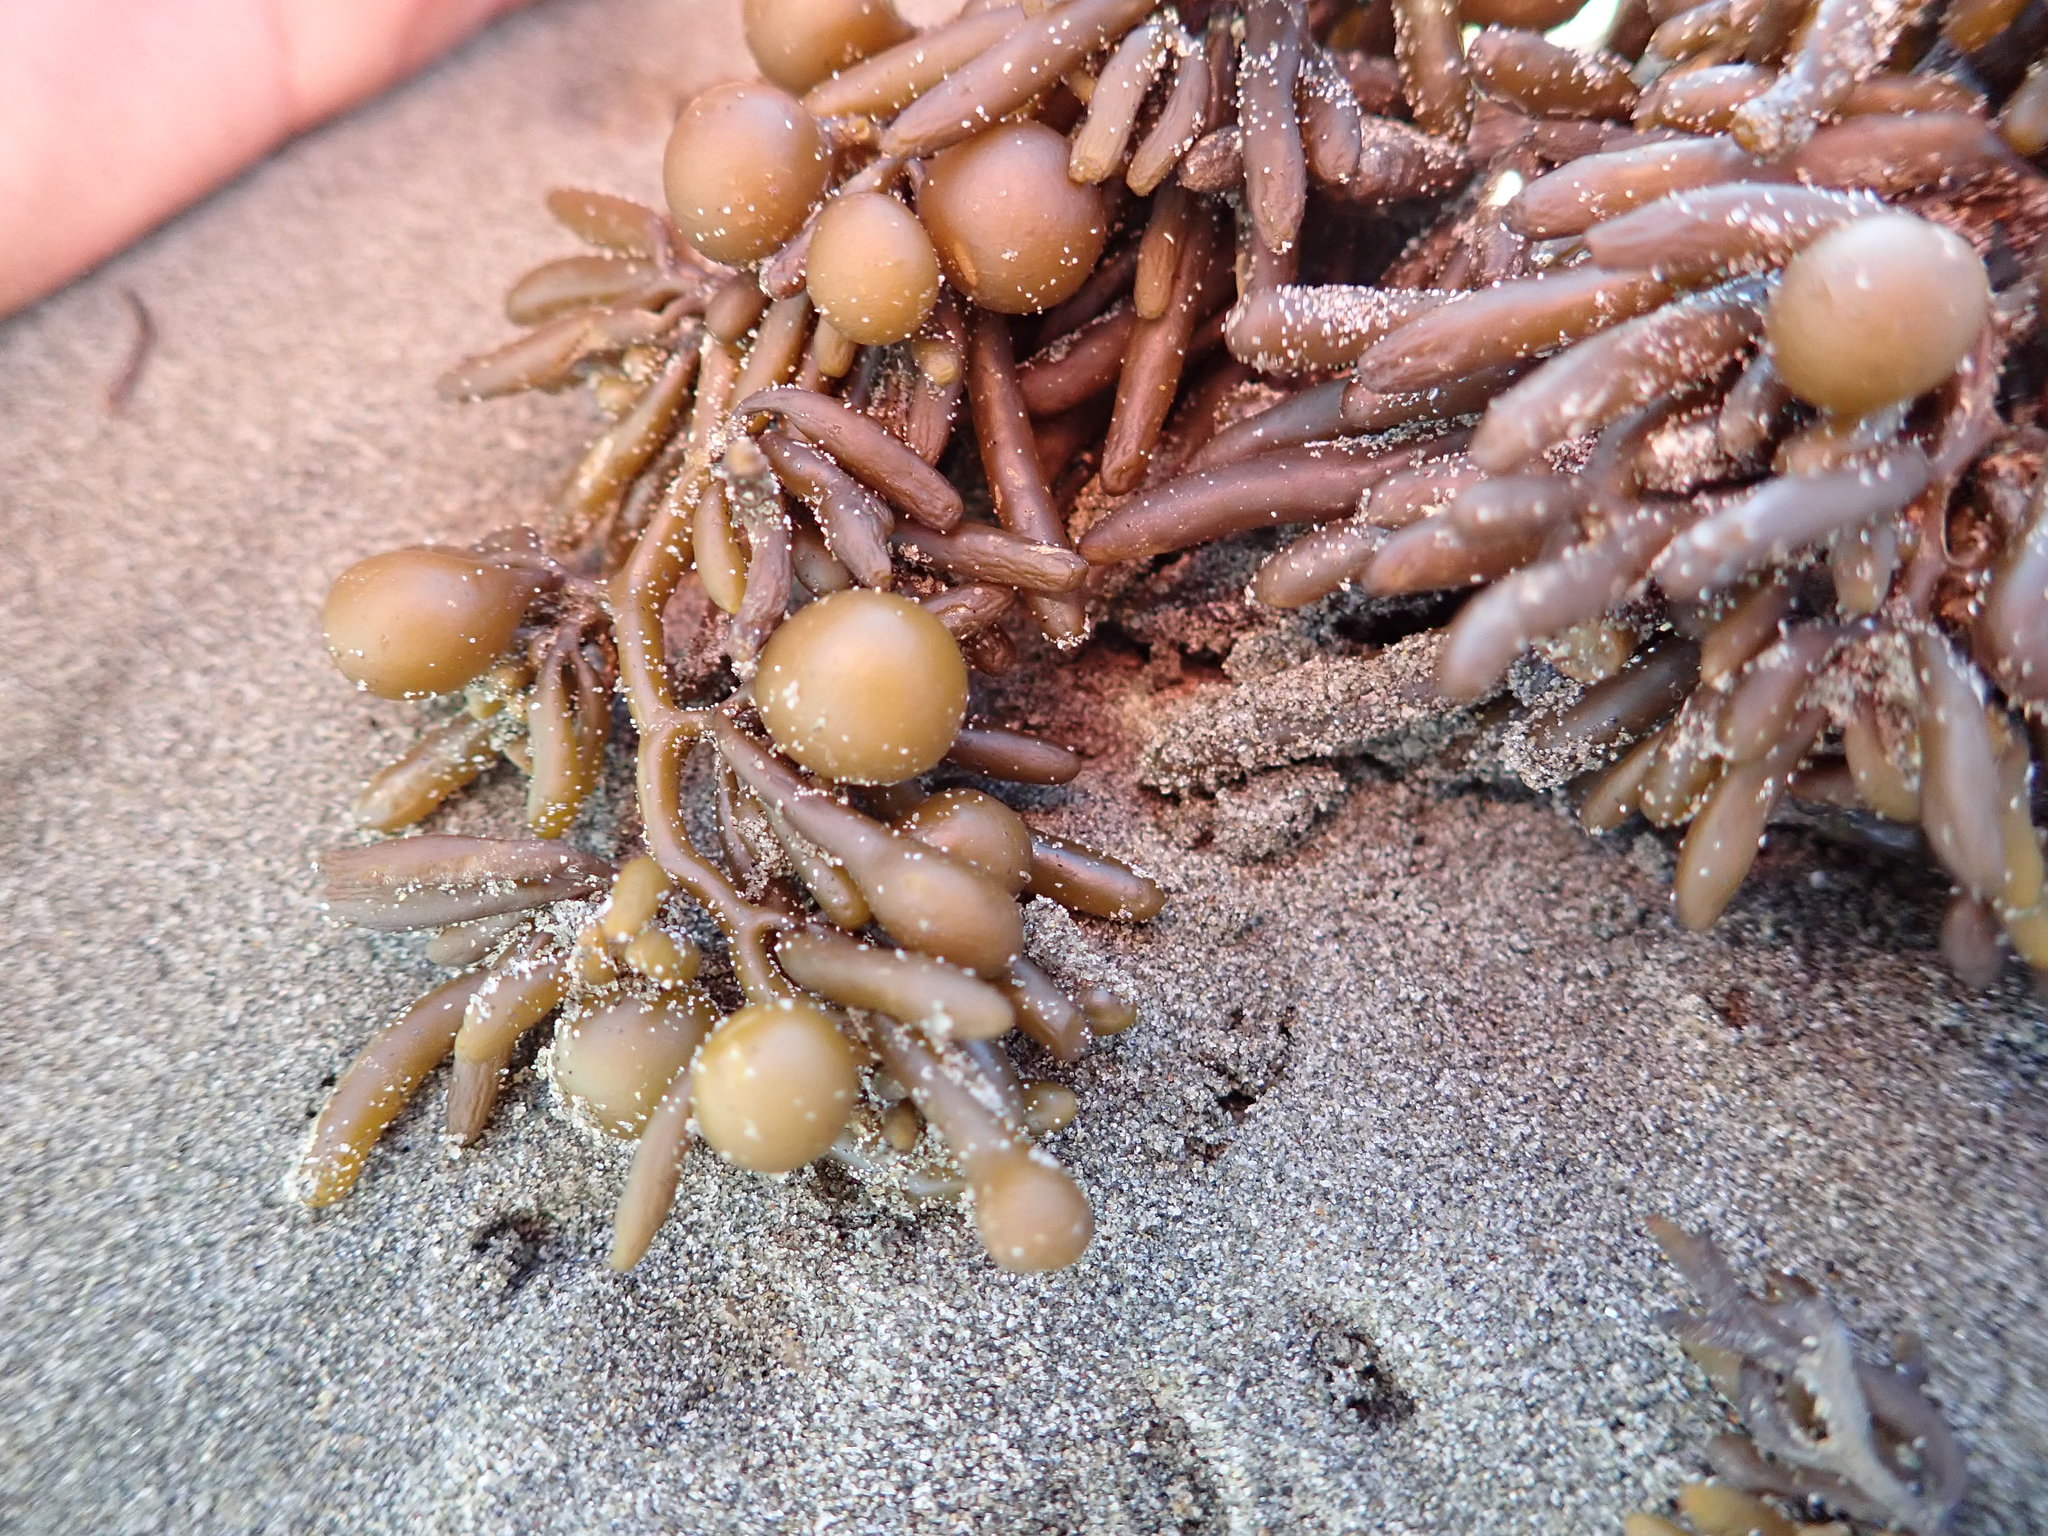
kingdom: Chromista
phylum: Ochrophyta
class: Phaeophyceae
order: Fucales
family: Sargassaceae
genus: Cystophora
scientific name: Cystophora torulosa
